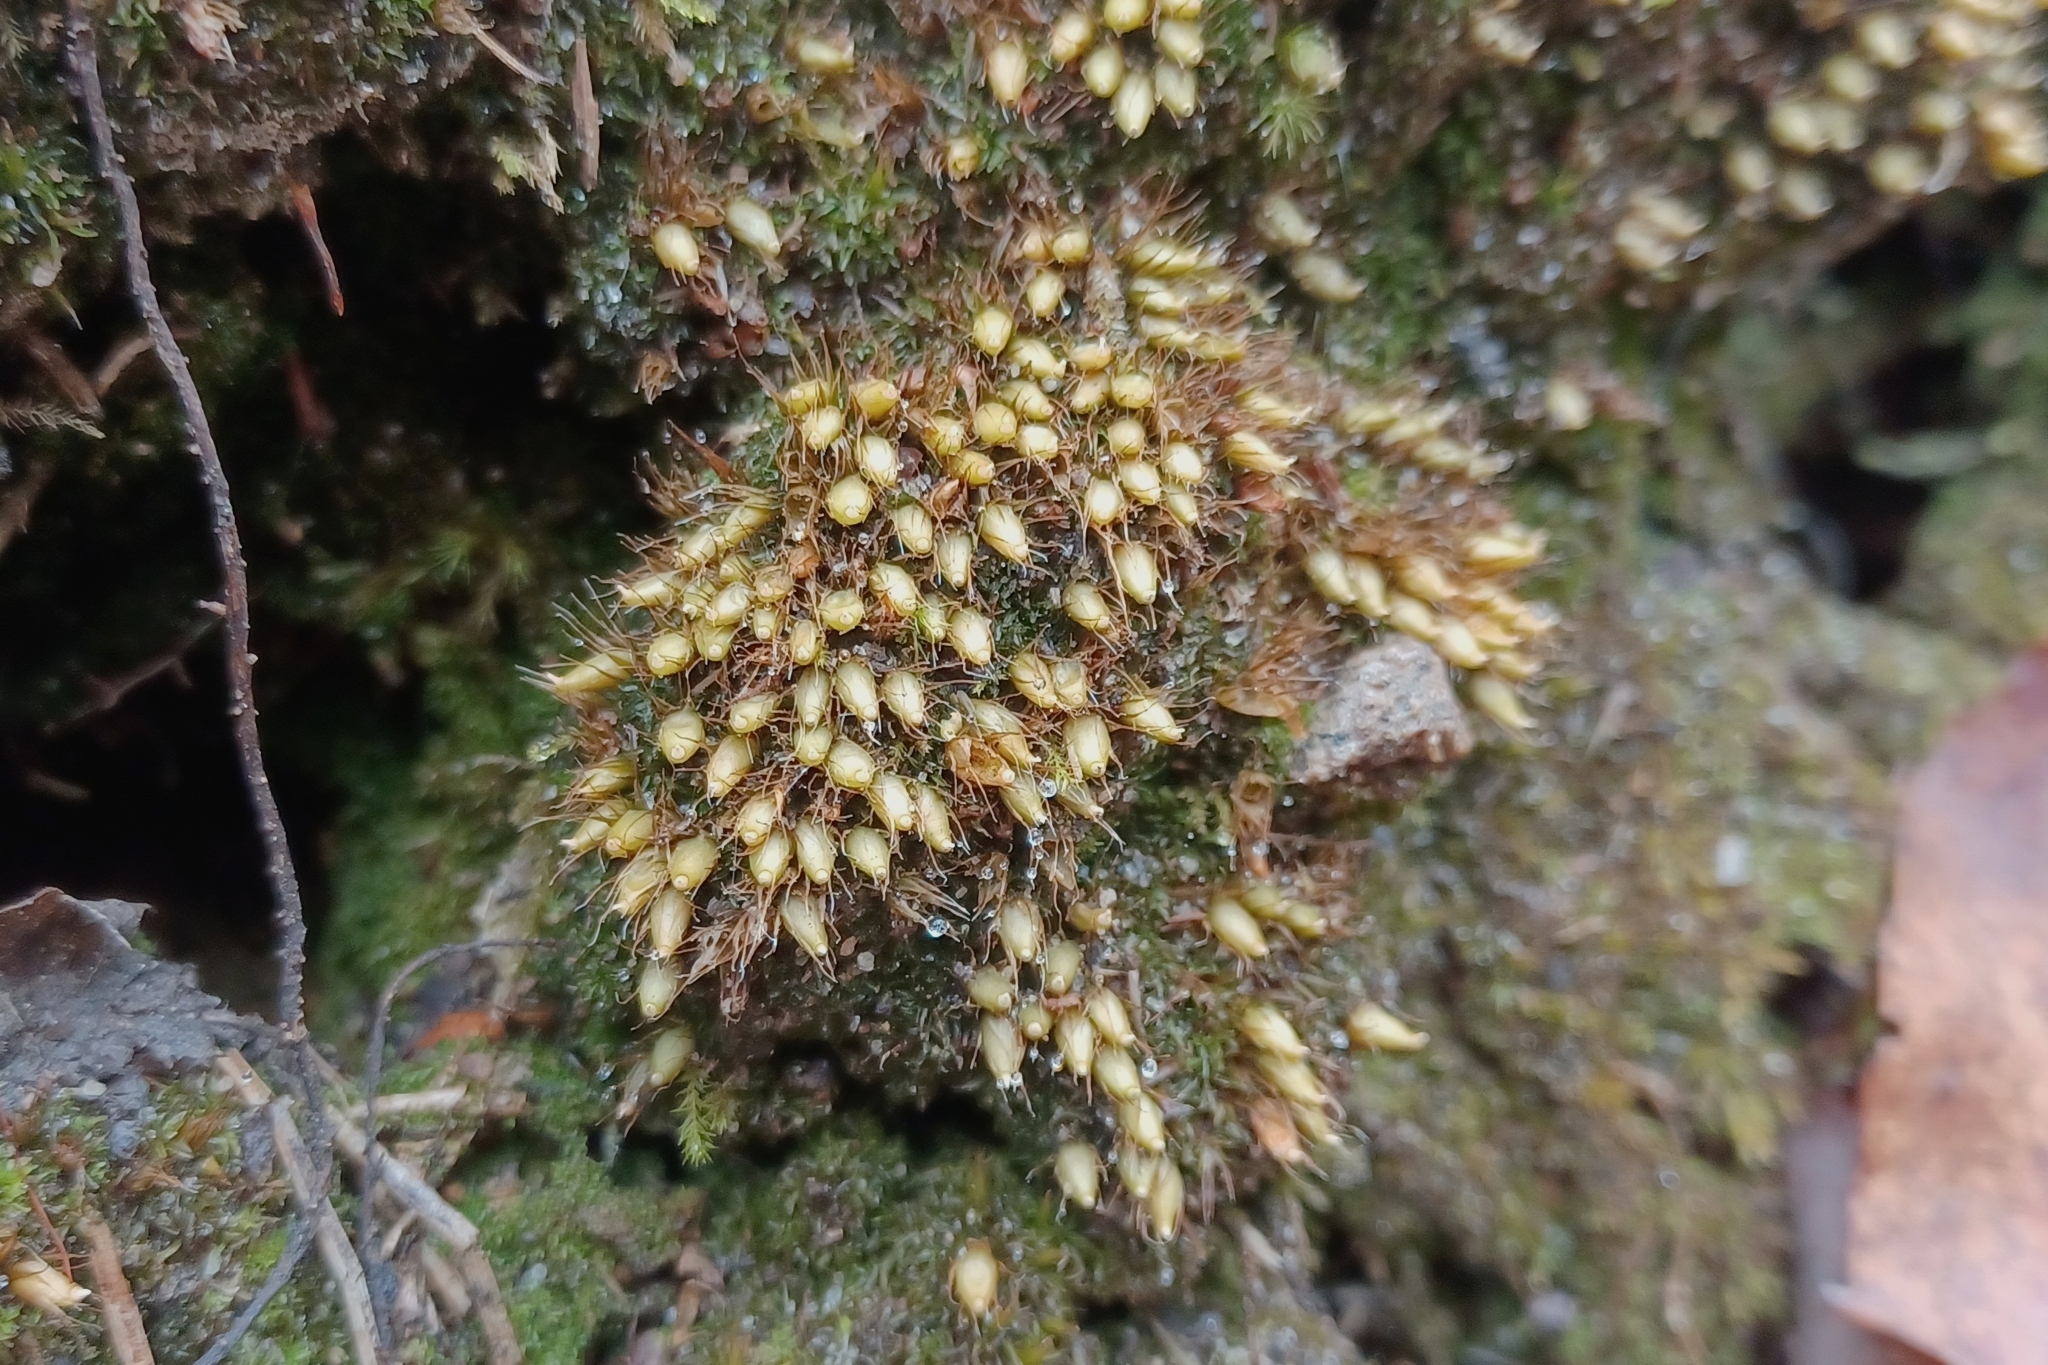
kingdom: Plantae
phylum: Bryophyta
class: Bryopsida
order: Diphysciales
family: Diphysciaceae
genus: Diphyscium
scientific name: Diphyscium foliosum
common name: Nut moss
